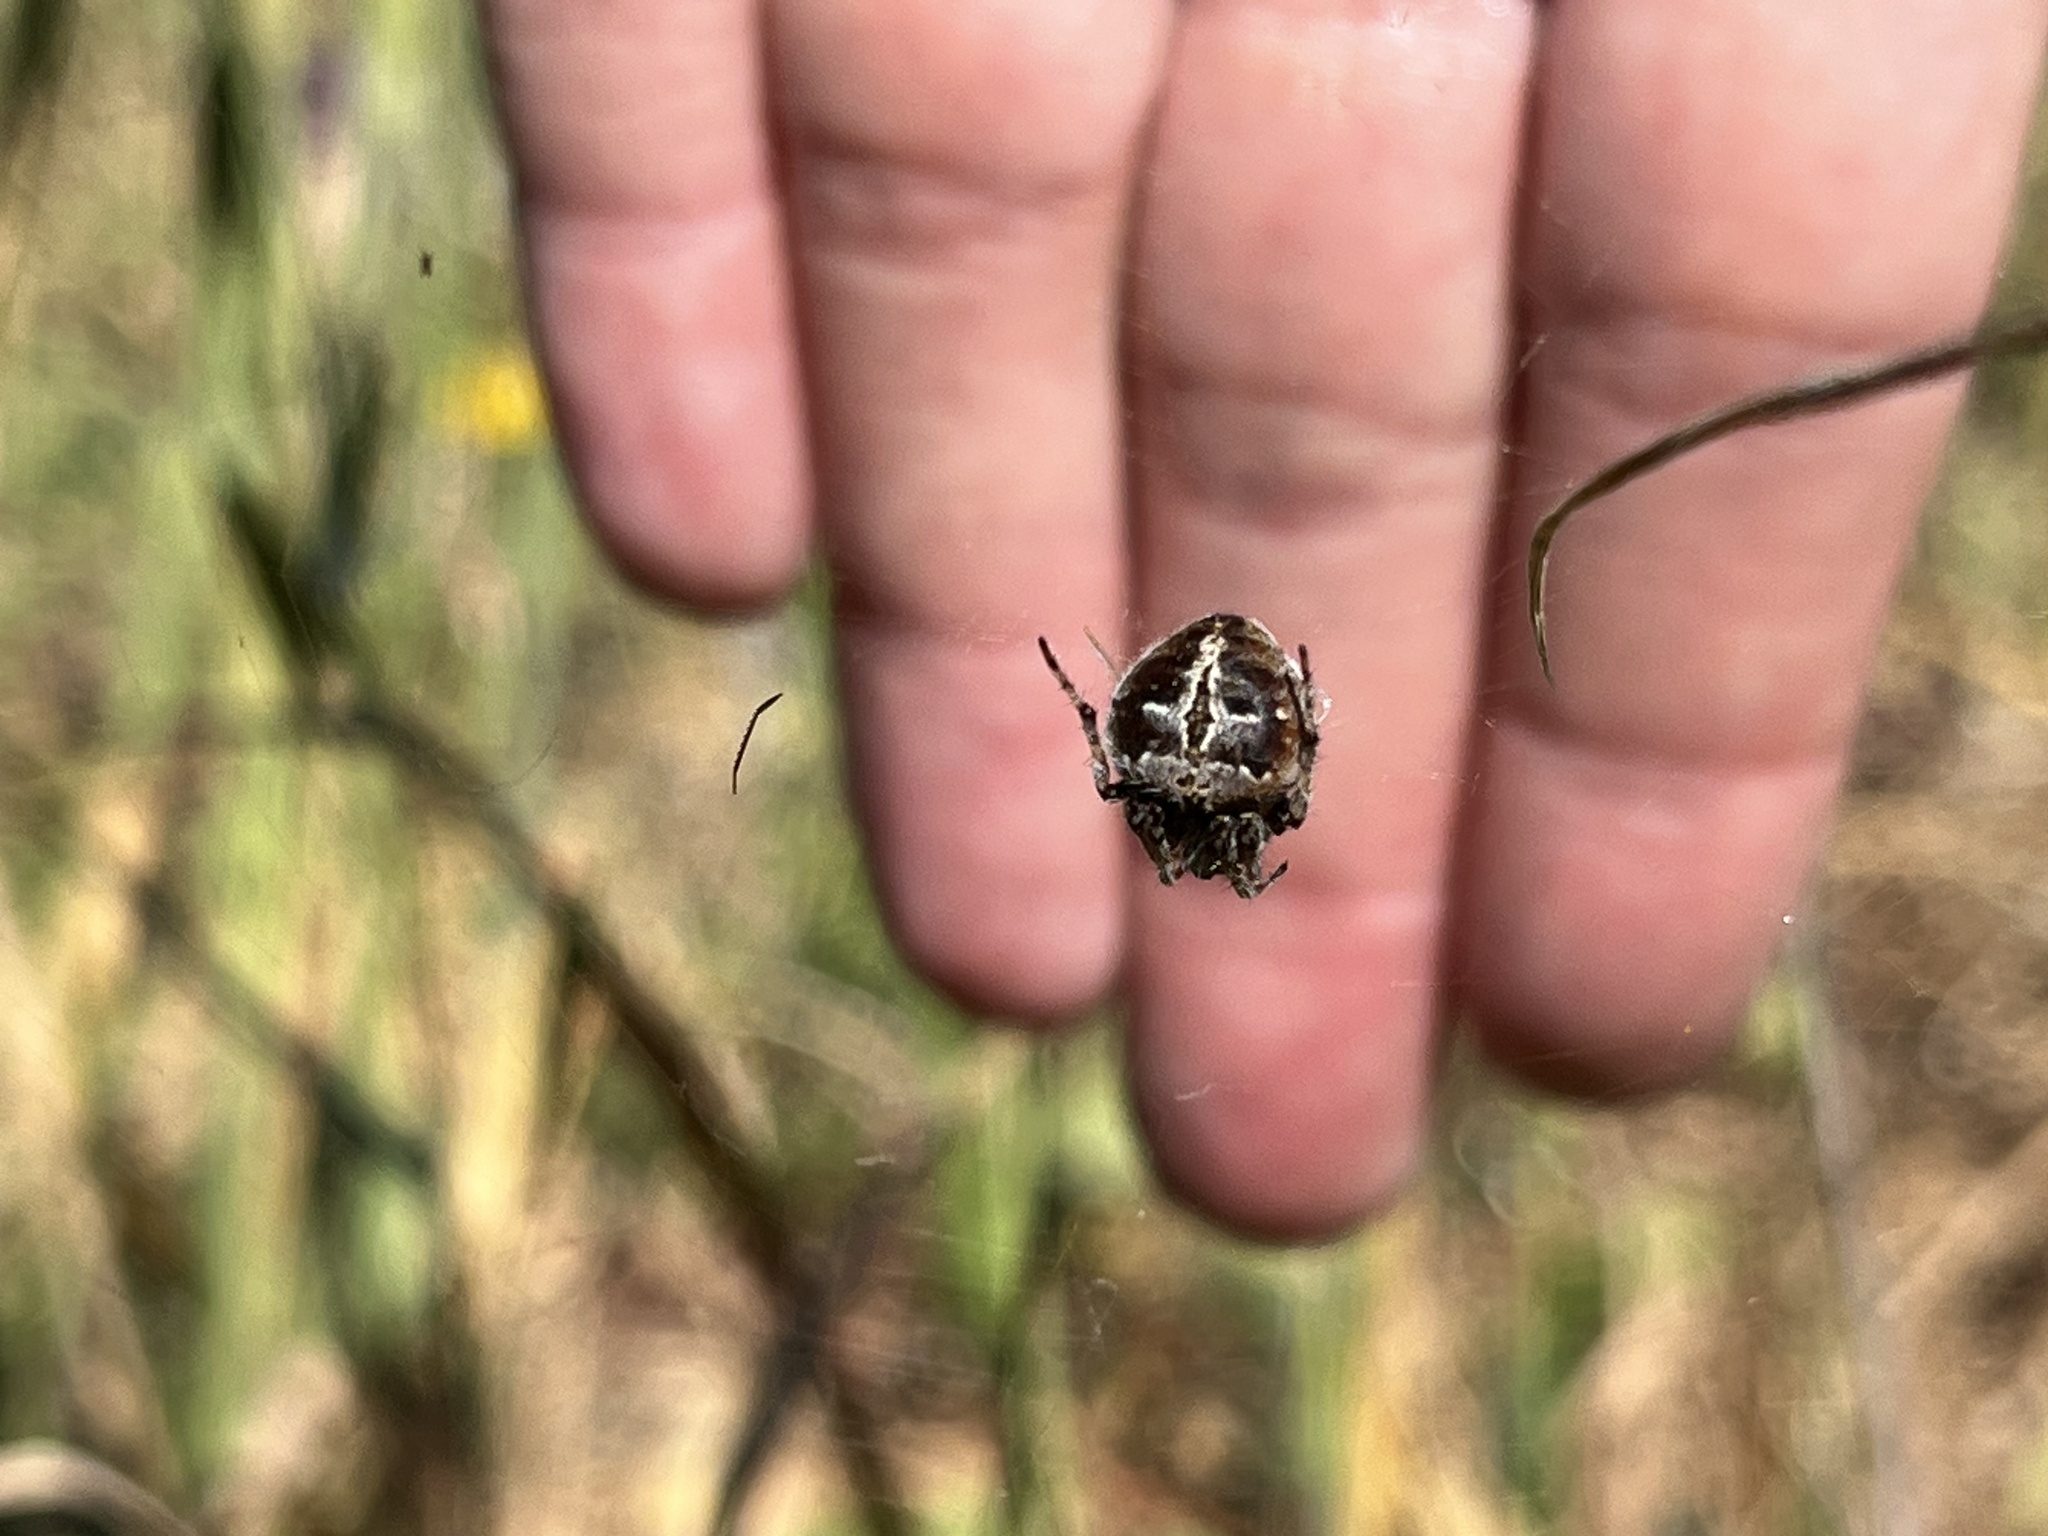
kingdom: Animalia
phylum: Arthropoda
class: Arachnida
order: Araneae
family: Araneidae
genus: Agalenatea
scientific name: Agalenatea redii
